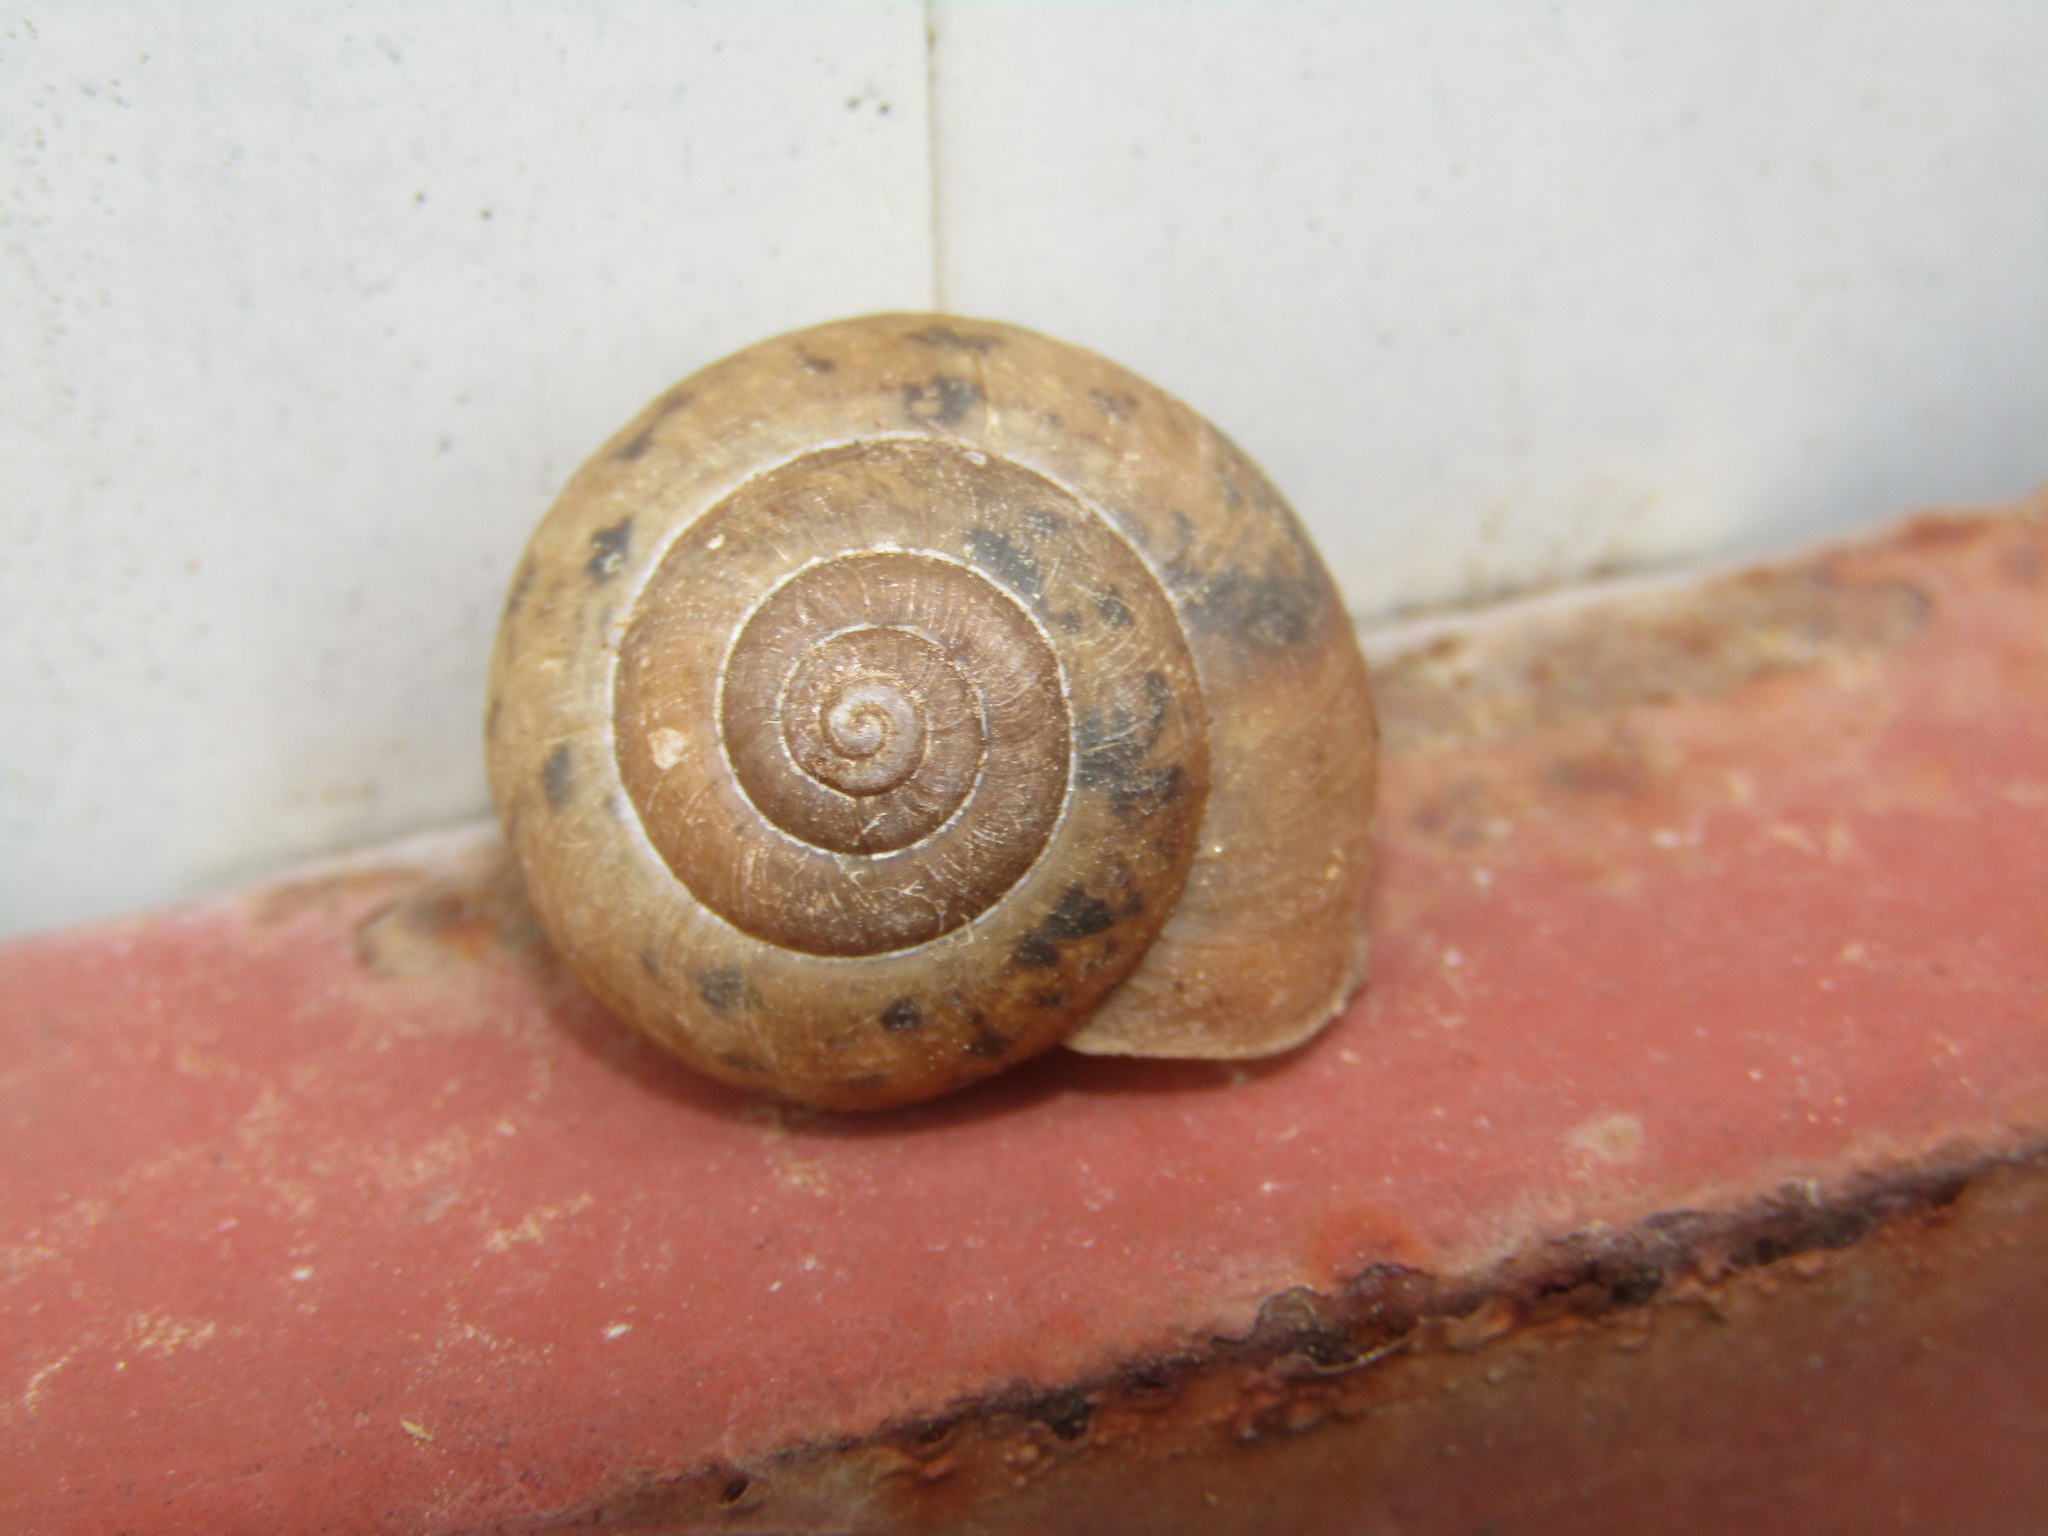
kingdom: Animalia
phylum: Mollusca
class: Gastropoda
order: Stylommatophora
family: Camaenidae
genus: Fruticicola
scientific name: Fruticicola fruticum
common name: Bush snail
